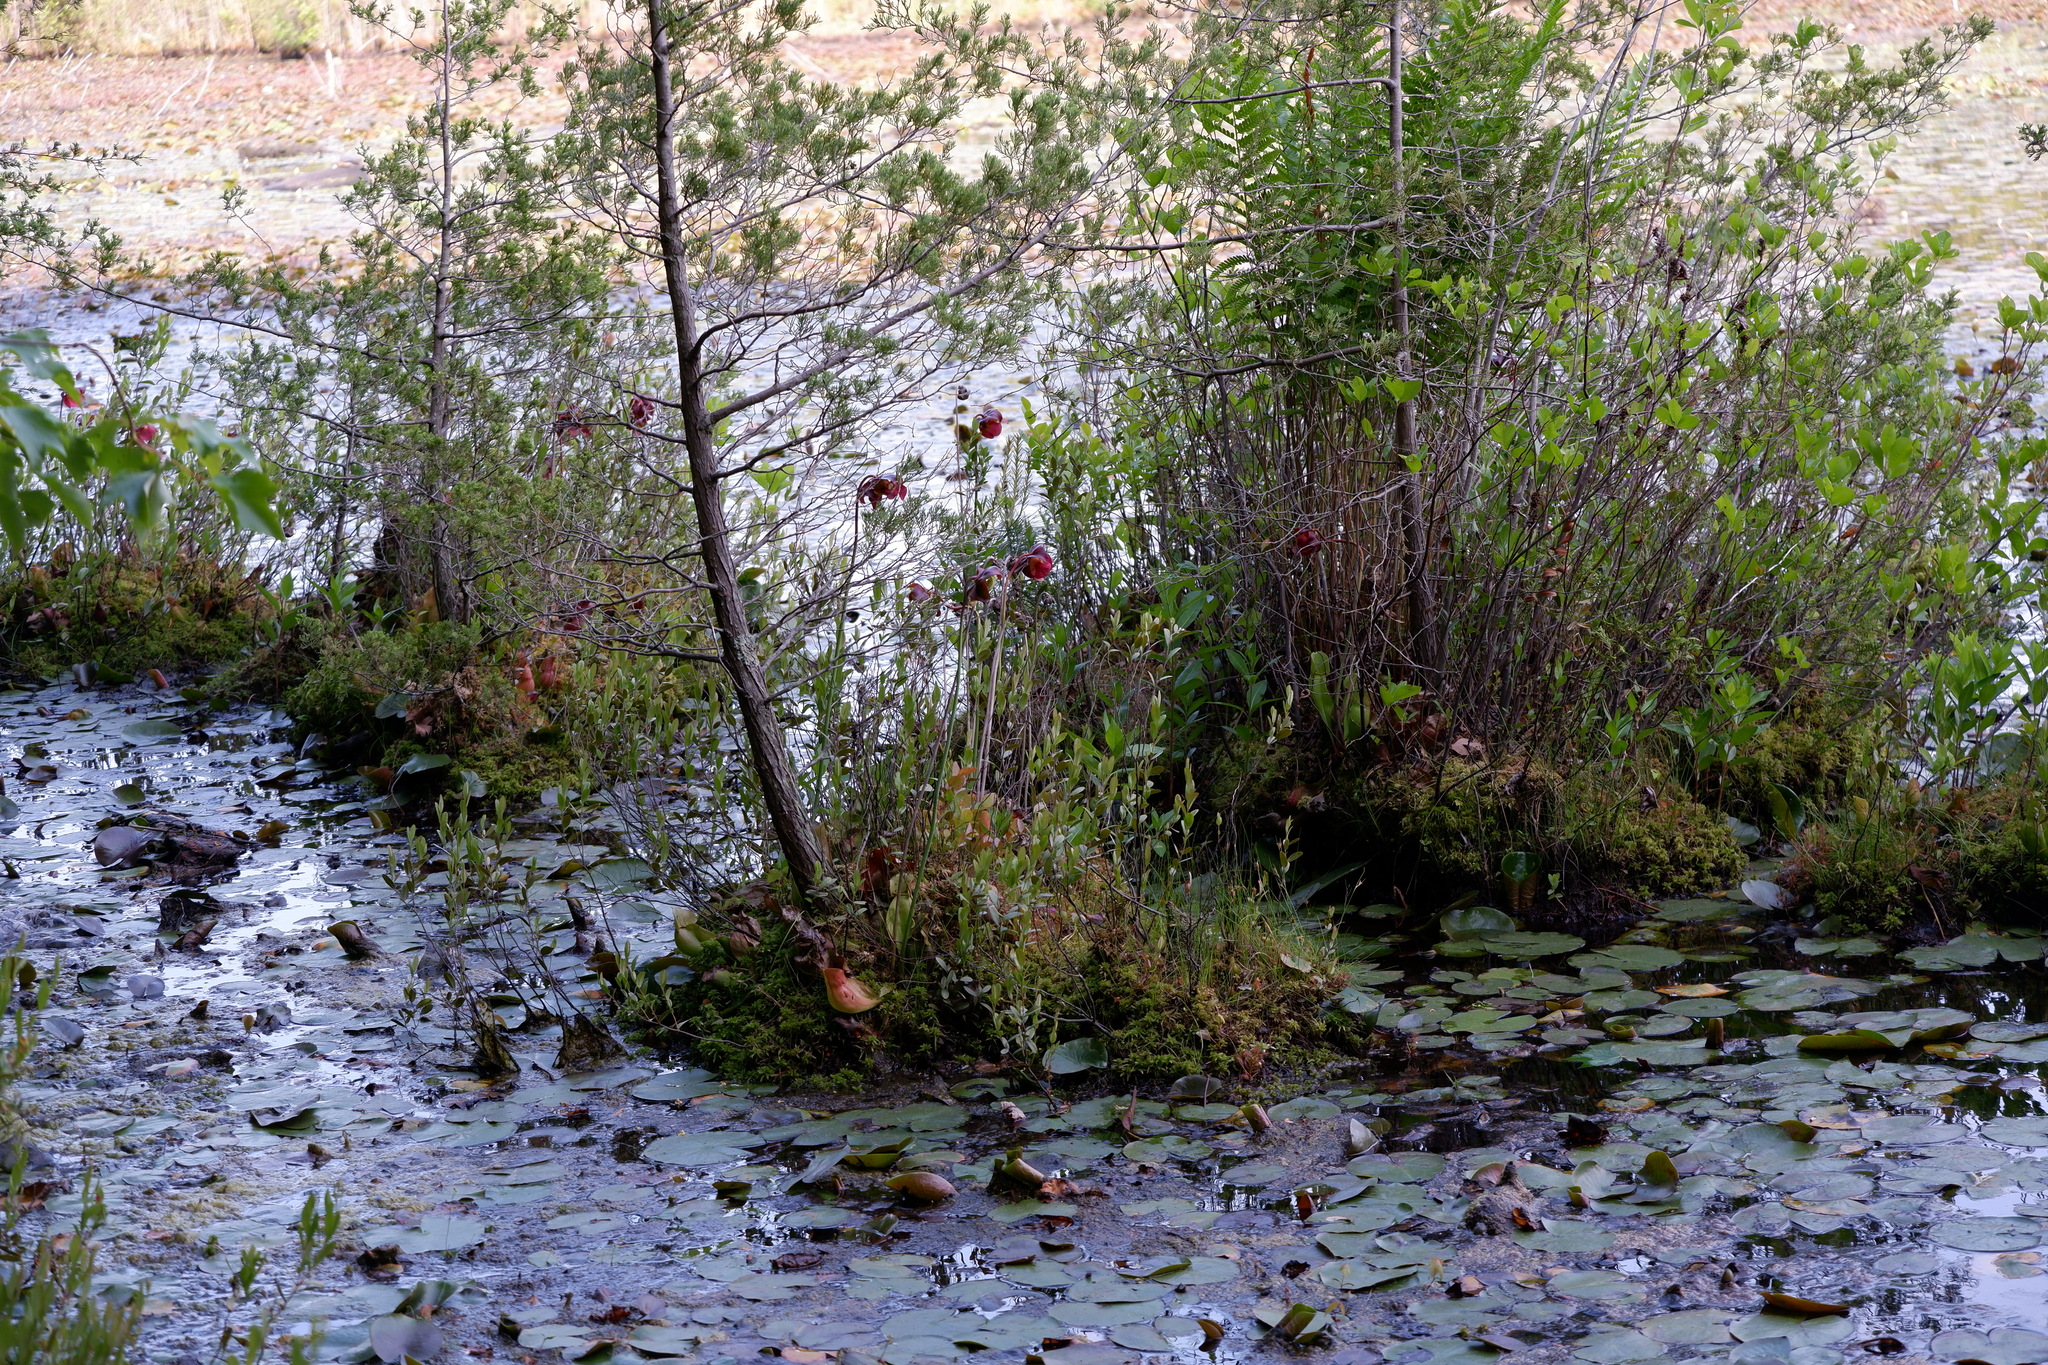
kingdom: Plantae
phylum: Tracheophyta
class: Magnoliopsida
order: Ericales
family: Ericaceae
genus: Chamaedaphne
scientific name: Chamaedaphne calyculata
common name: Leatherleaf
